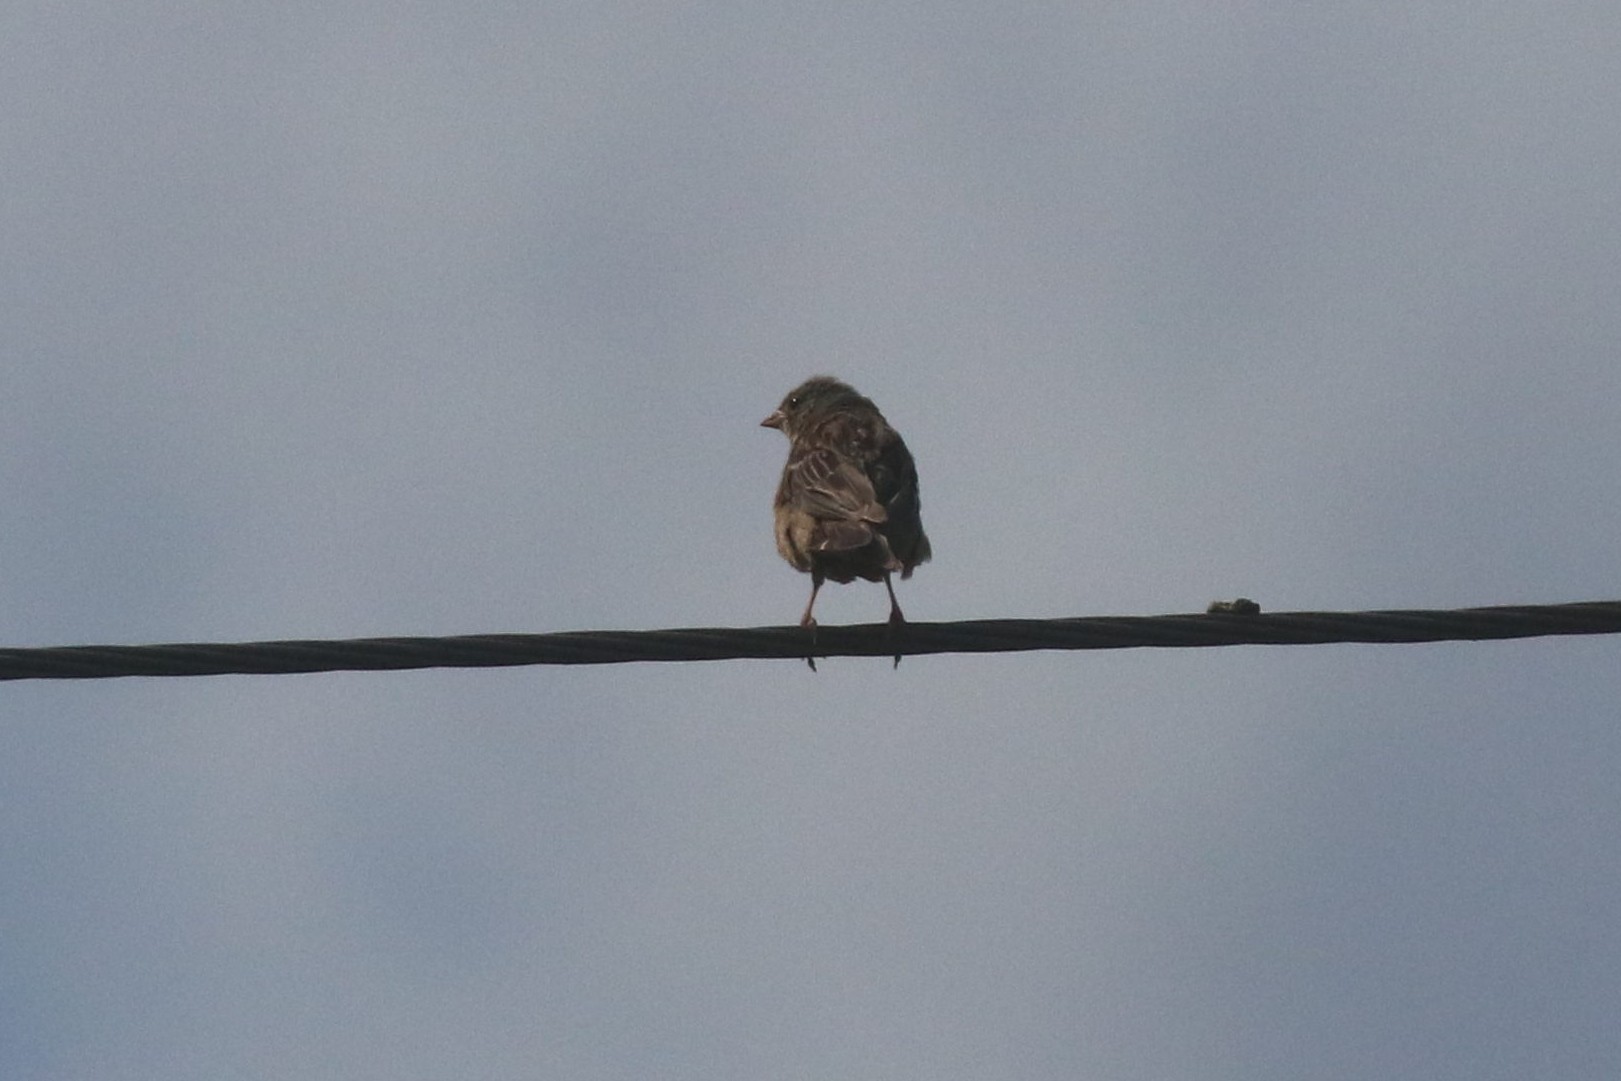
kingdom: Animalia
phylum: Chordata
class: Aves
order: Passeriformes
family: Emberizidae
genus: Emberiza
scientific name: Emberiza hortulana
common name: Ortolan bunting
